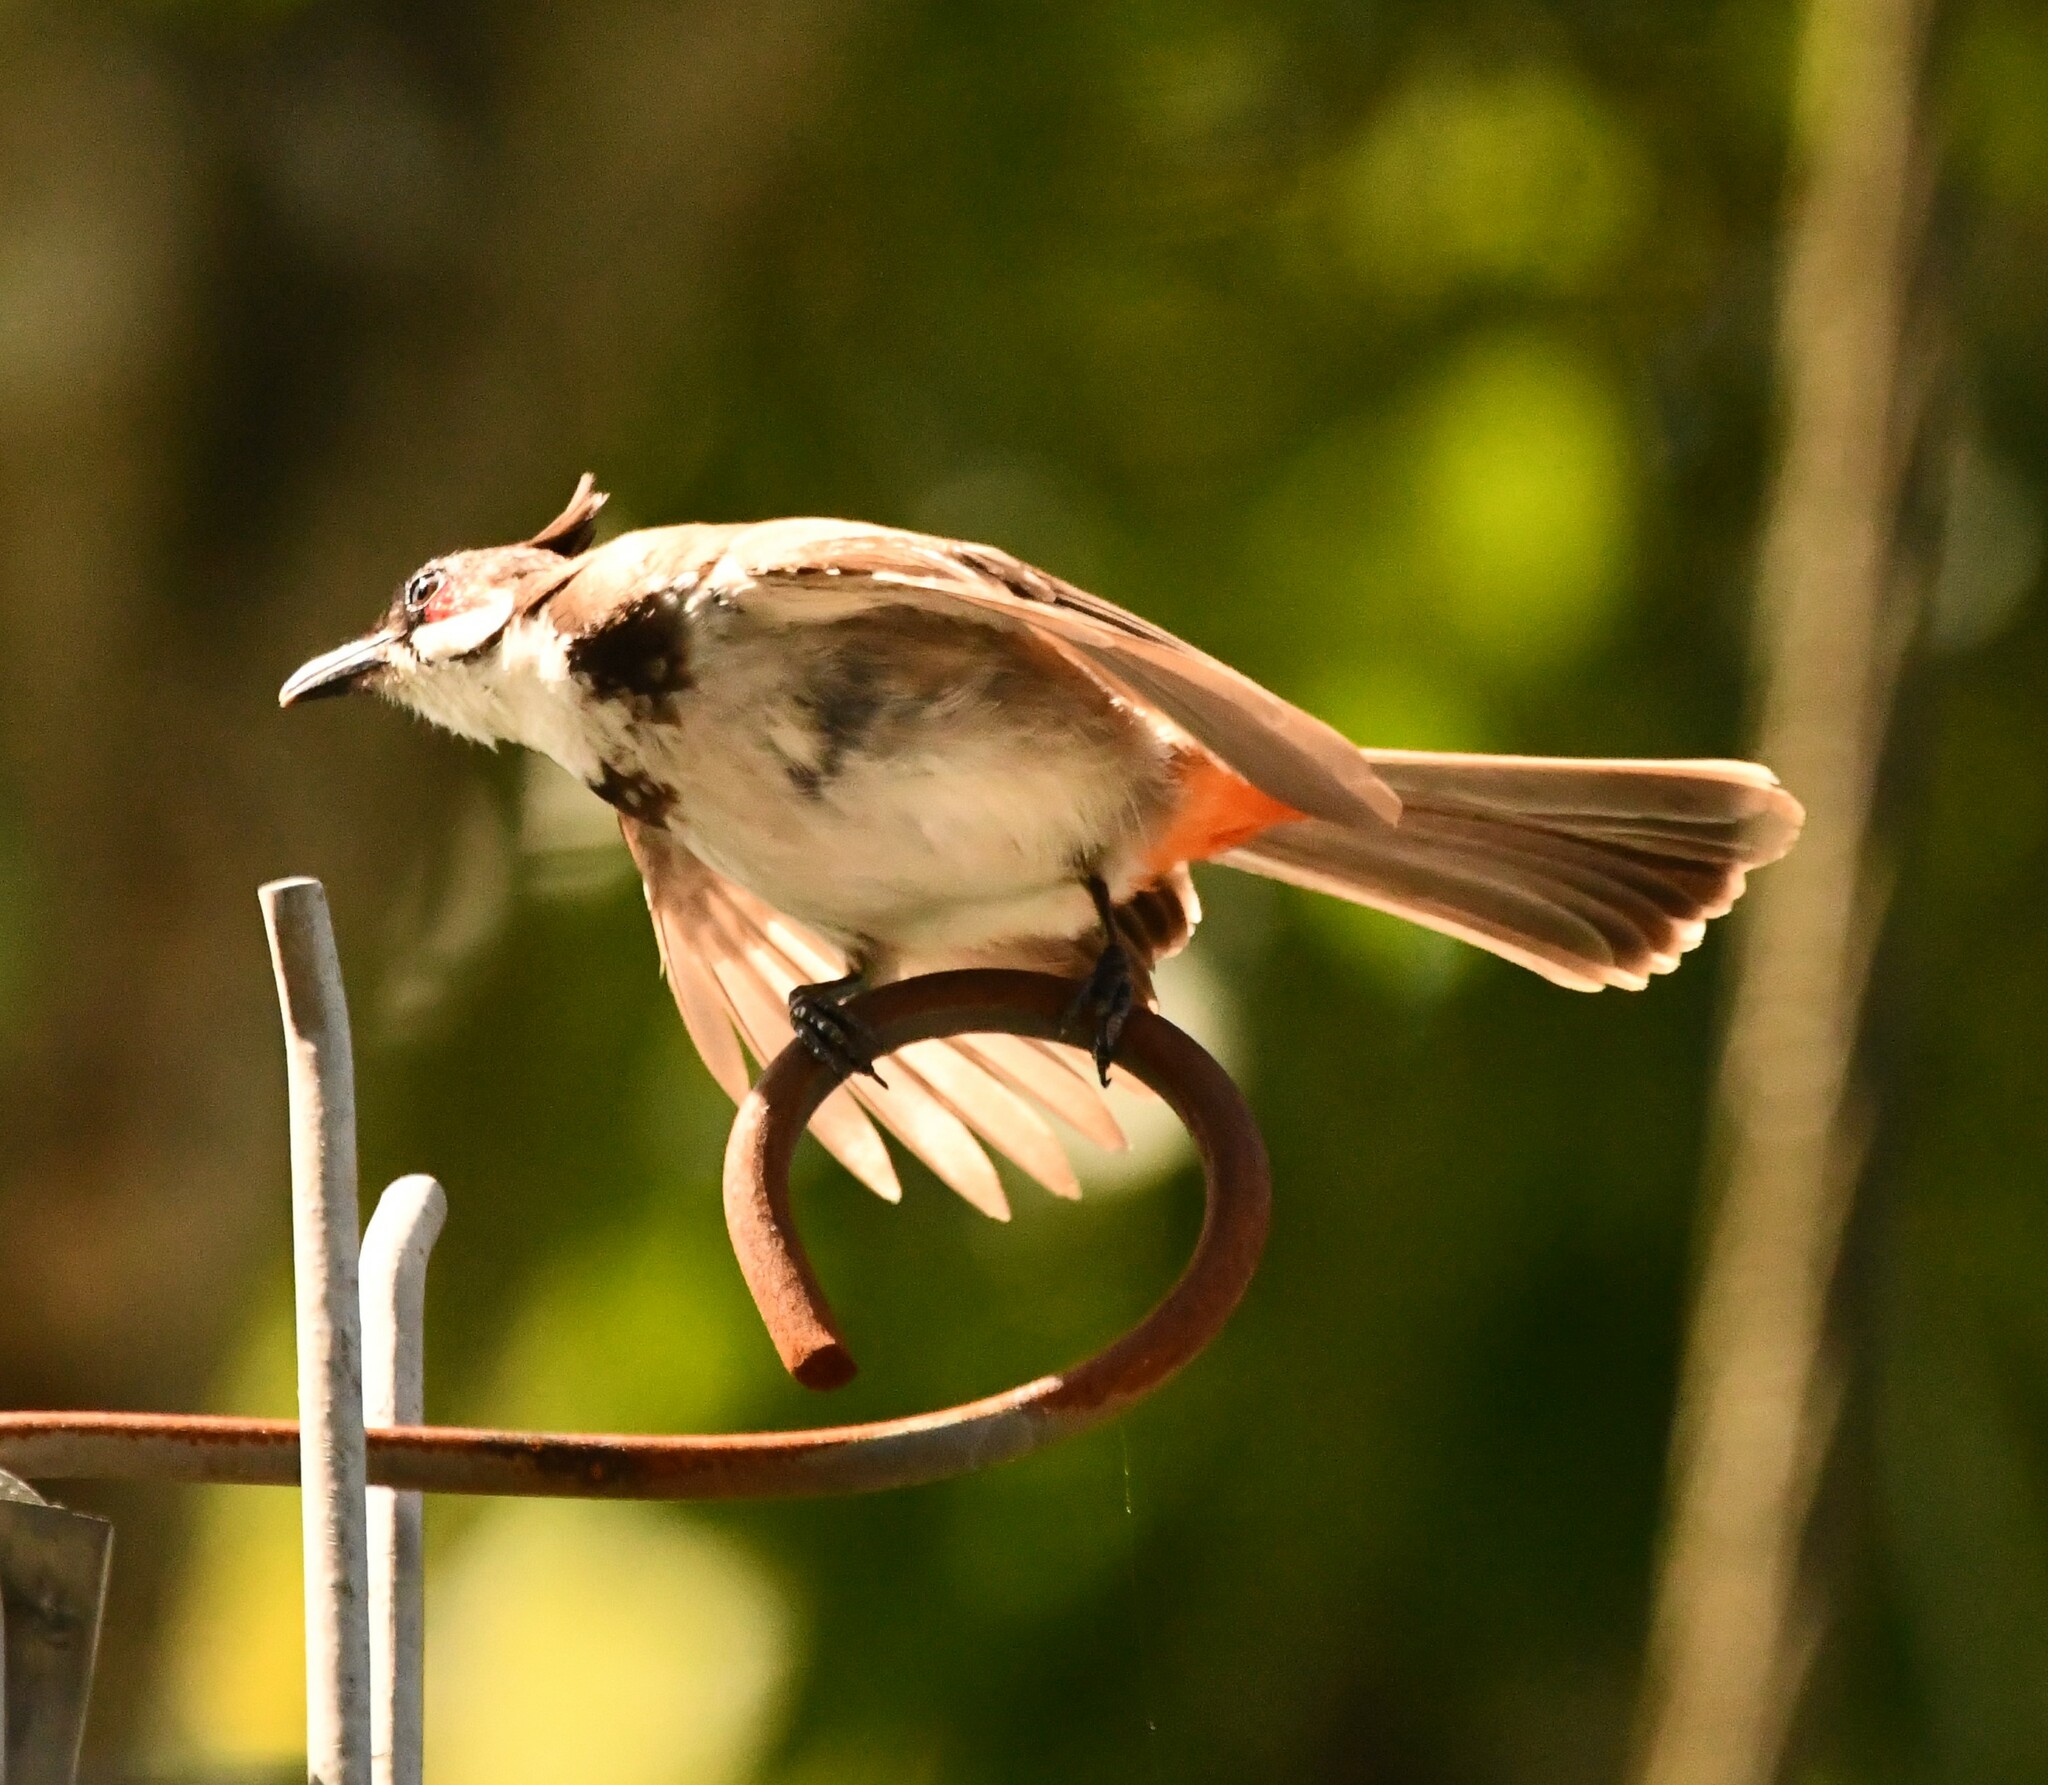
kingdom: Animalia
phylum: Chordata
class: Aves
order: Passeriformes
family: Pycnonotidae
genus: Pycnonotus
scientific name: Pycnonotus jocosus
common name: Red-whiskered bulbul
